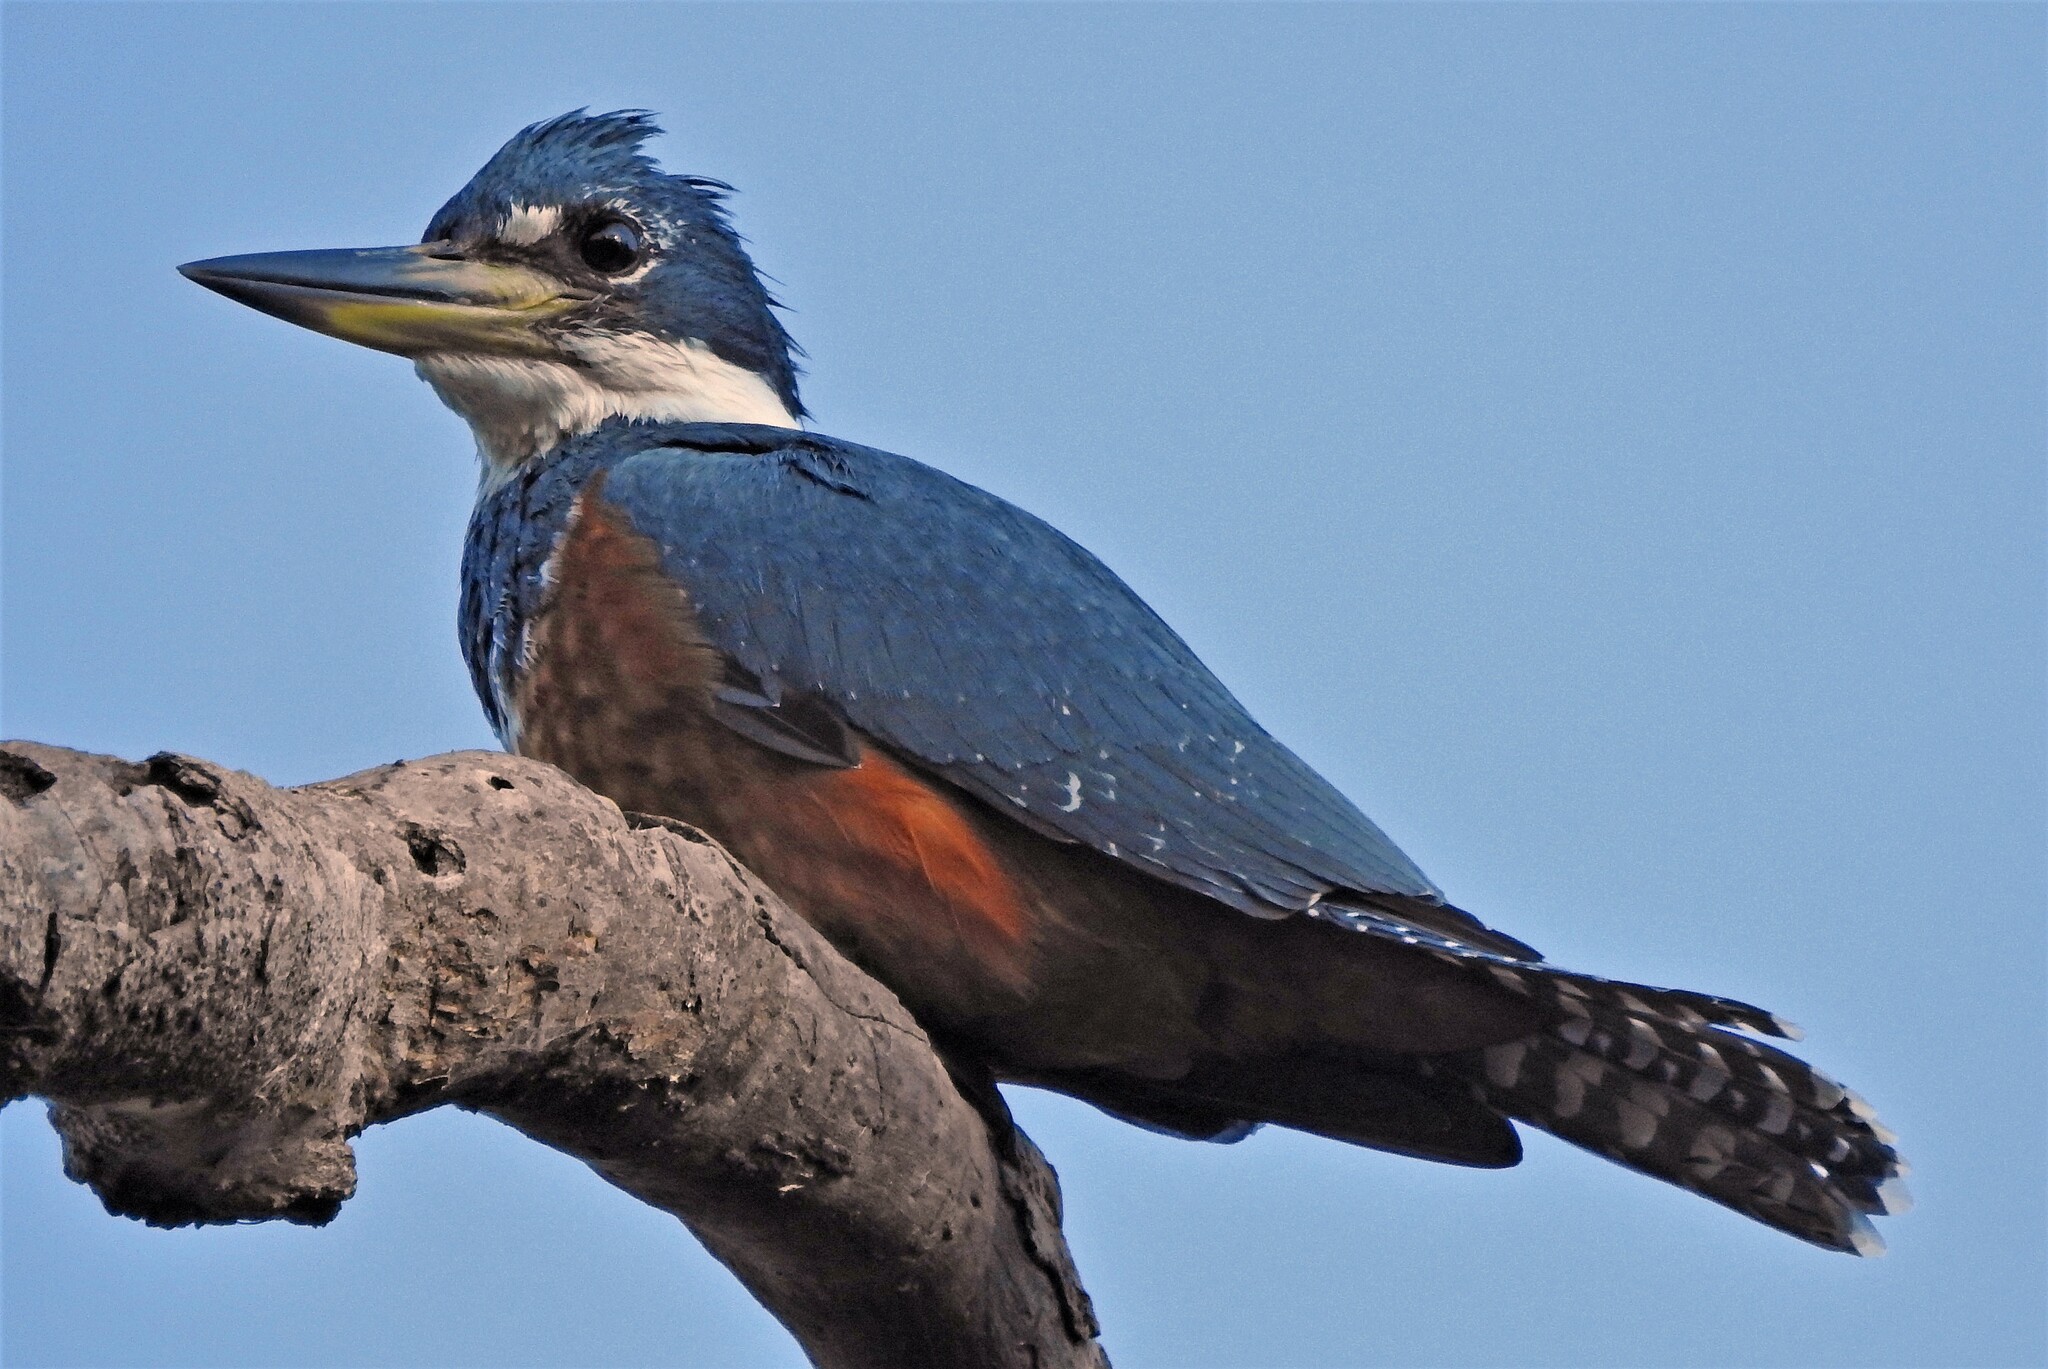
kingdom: Animalia
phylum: Chordata
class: Aves
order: Coraciiformes
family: Alcedinidae
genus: Megaceryle
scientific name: Megaceryle torquata
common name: Ringed kingfisher
